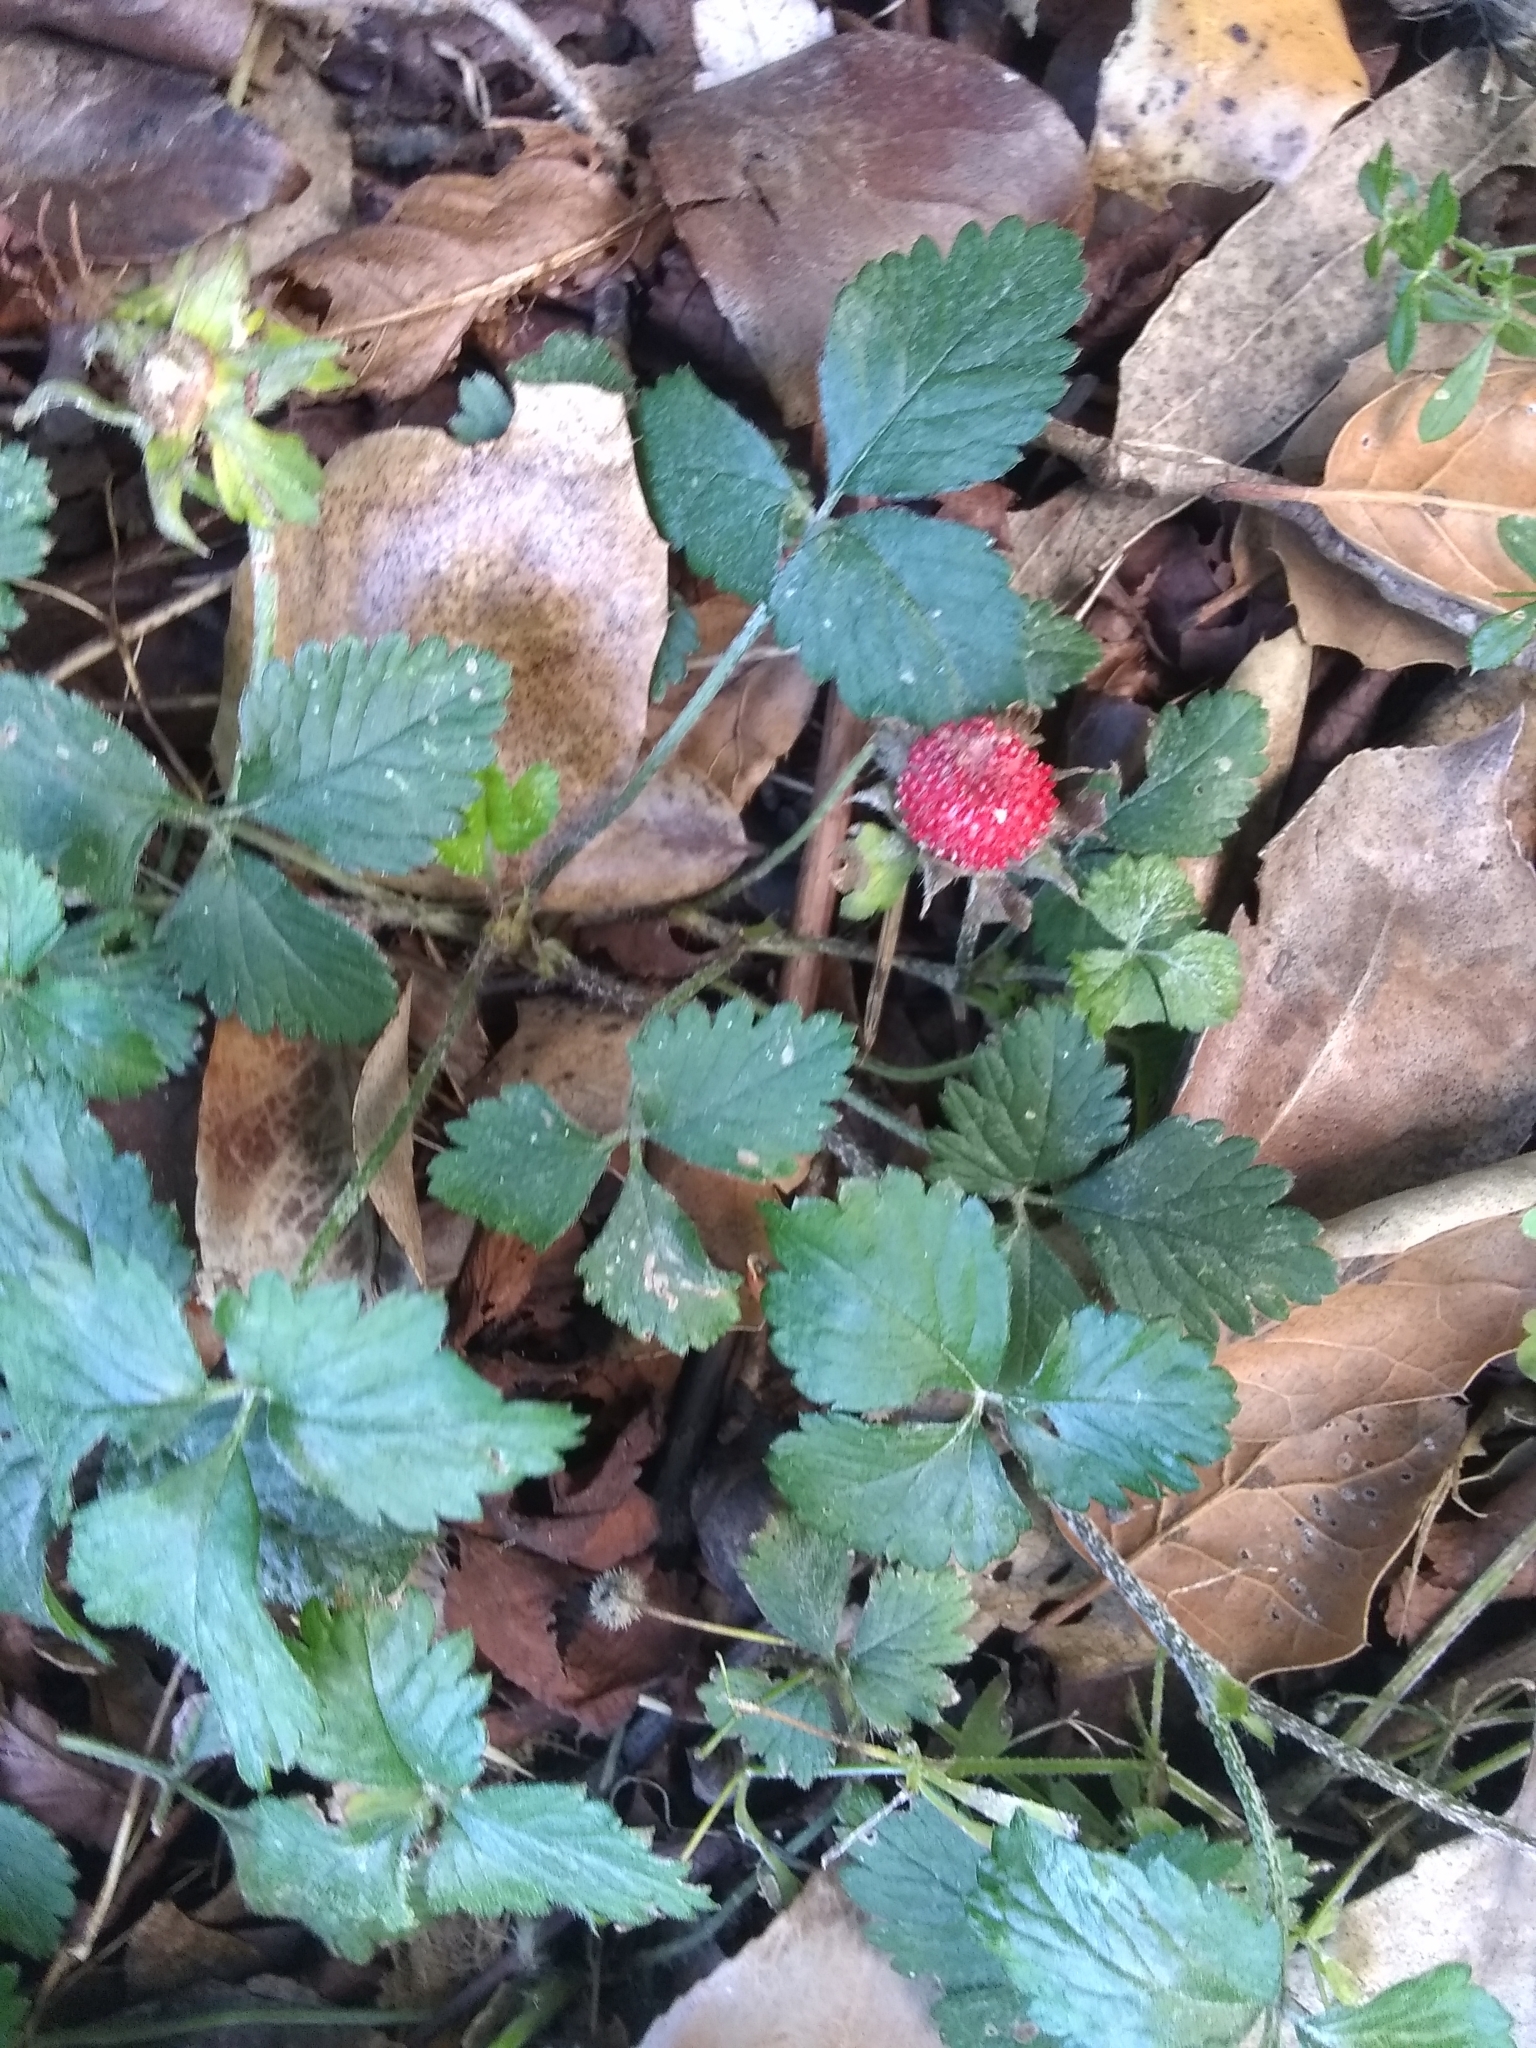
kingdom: Plantae
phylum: Tracheophyta
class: Magnoliopsida
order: Rosales
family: Rosaceae
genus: Potentilla
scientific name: Potentilla indica
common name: Yellow-flowered strawberry
